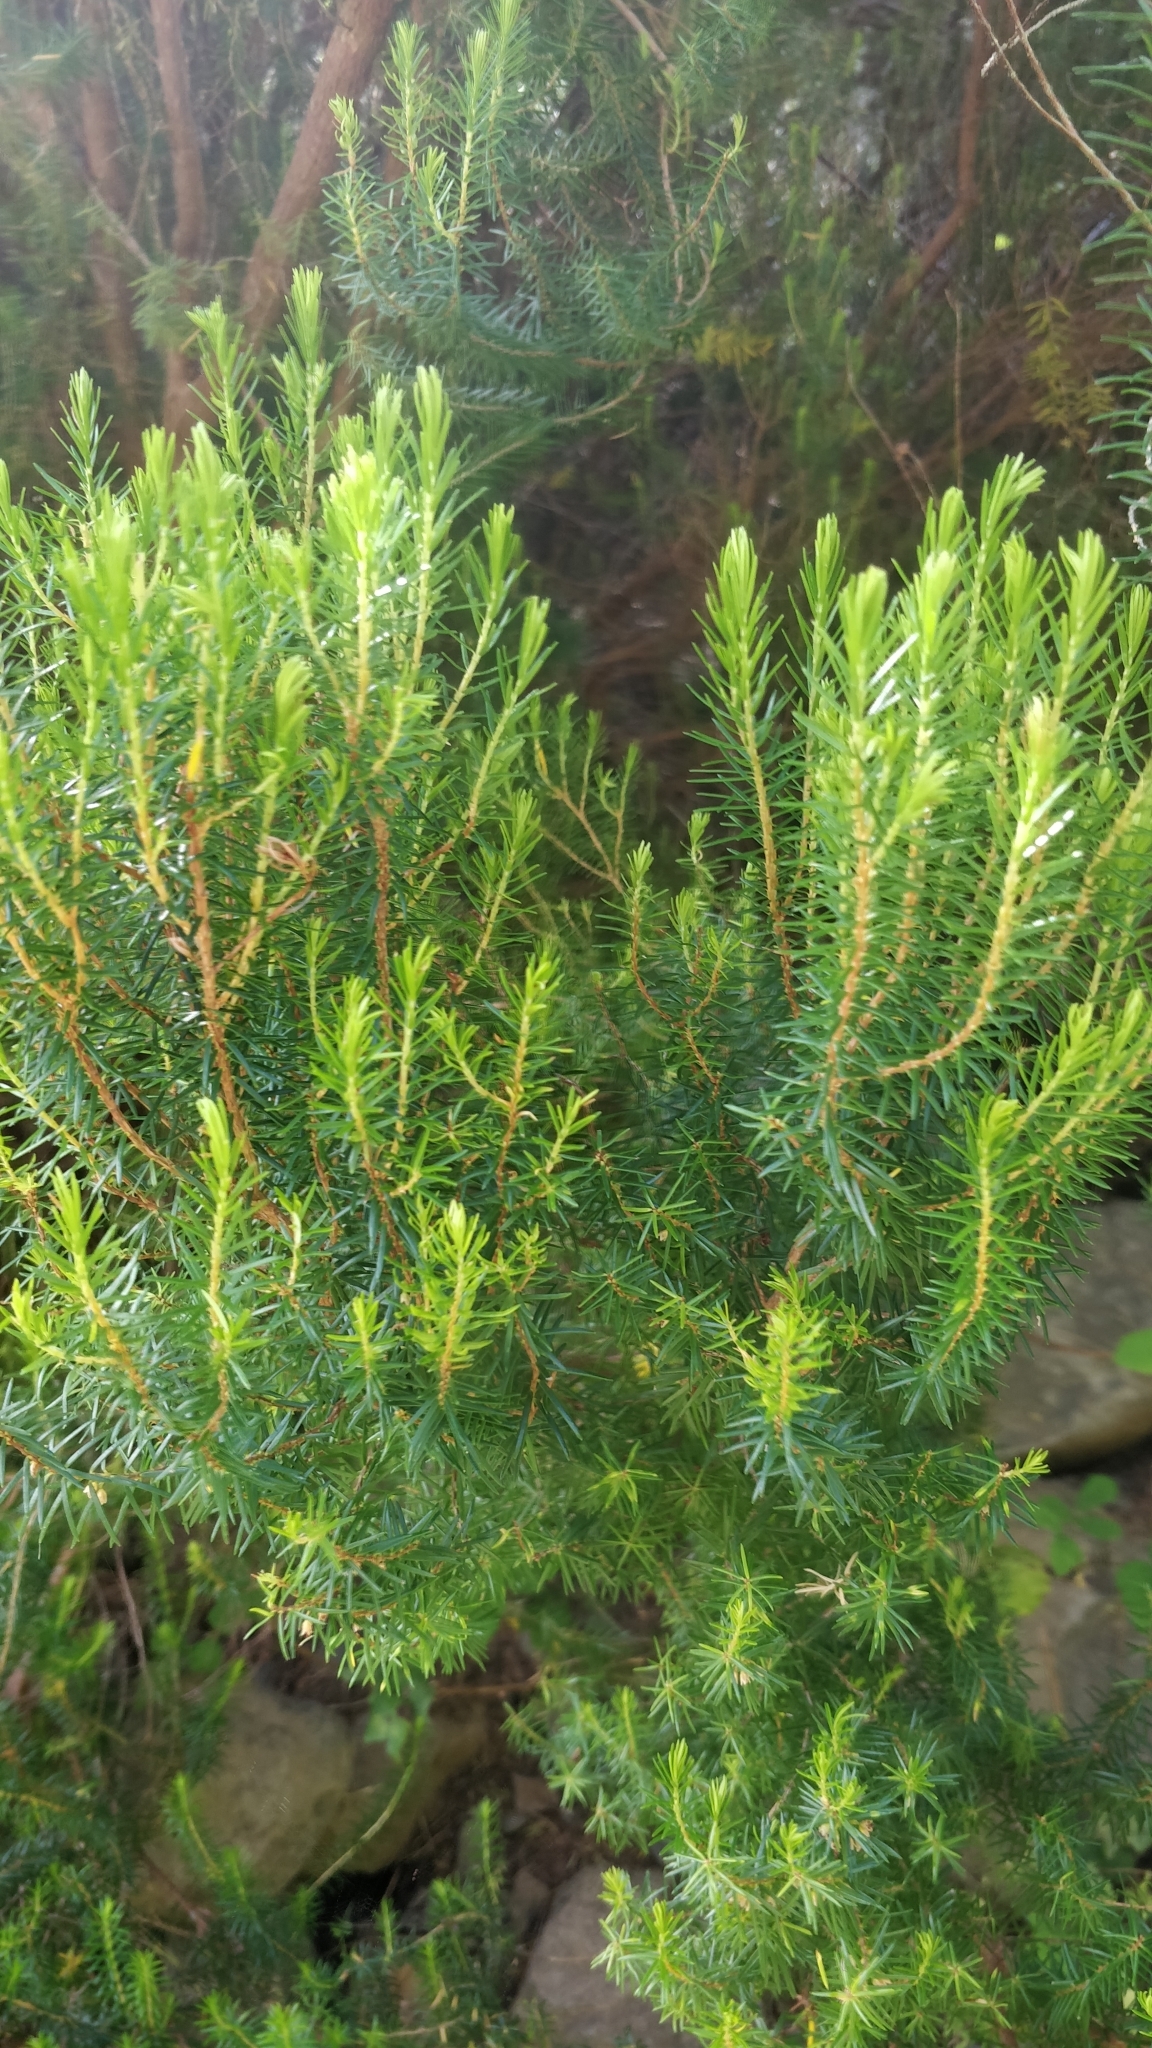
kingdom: Plantae
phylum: Tracheophyta
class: Magnoliopsida
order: Ericales
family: Ericaceae
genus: Erica
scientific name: Erica platycodon
